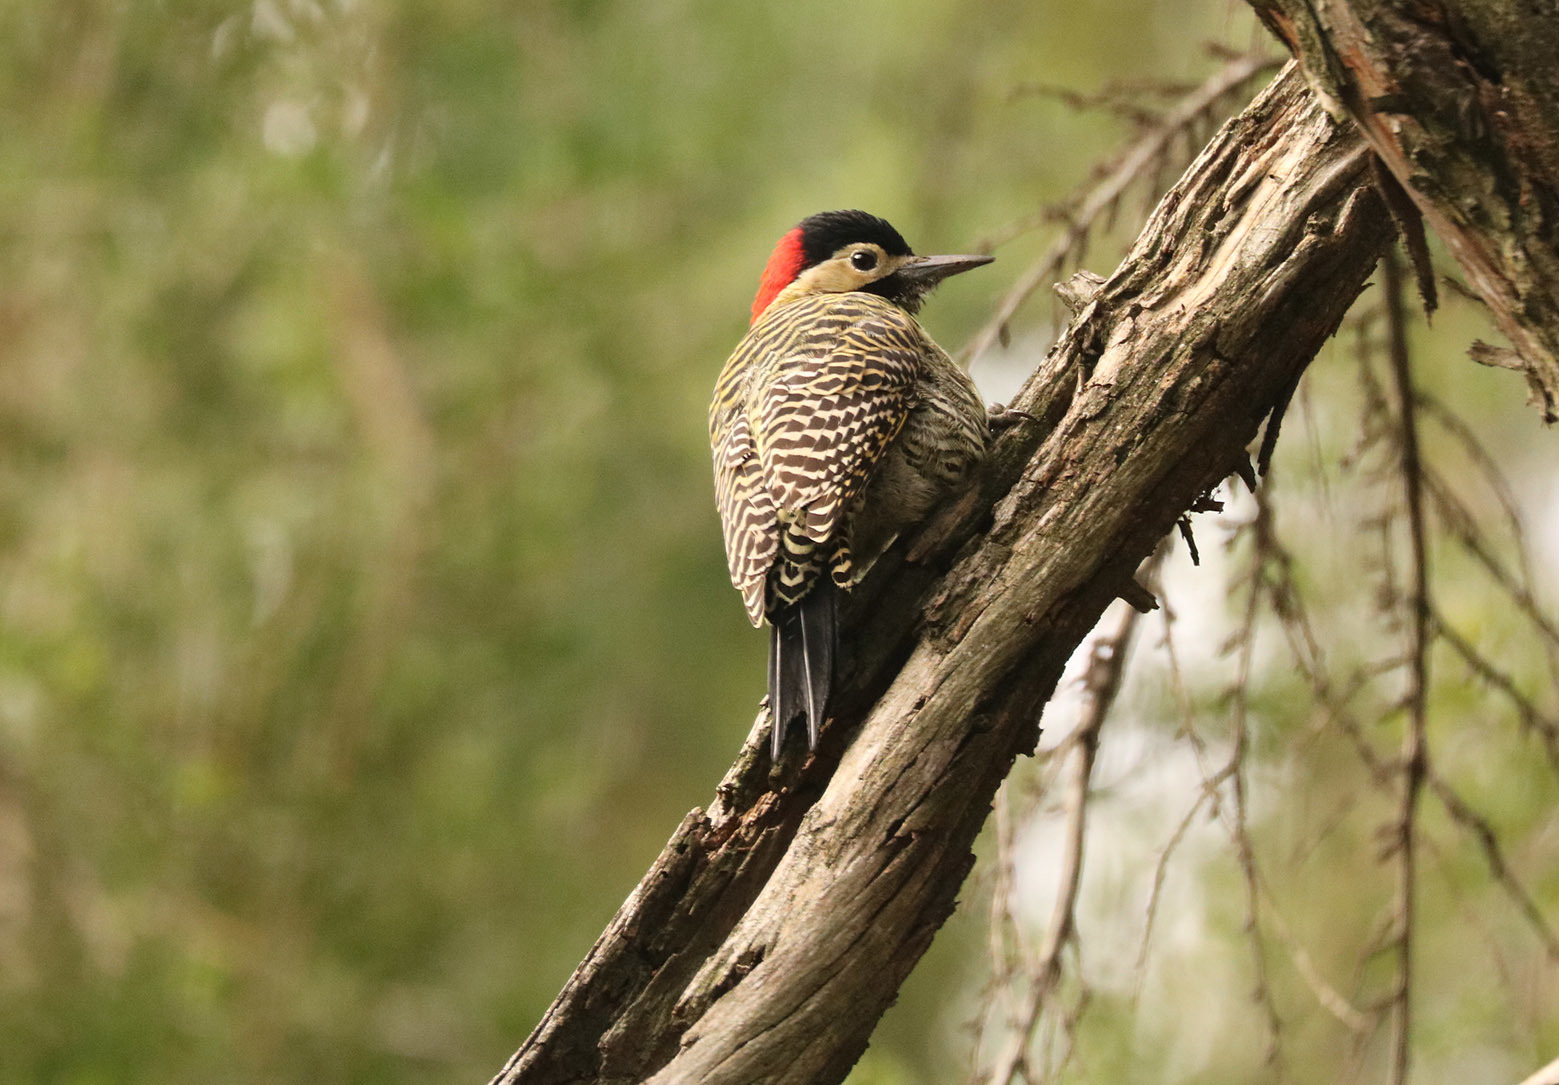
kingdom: Animalia
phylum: Chordata
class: Aves
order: Piciformes
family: Picidae
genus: Colaptes
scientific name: Colaptes melanochloros
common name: Green-barred woodpecker
